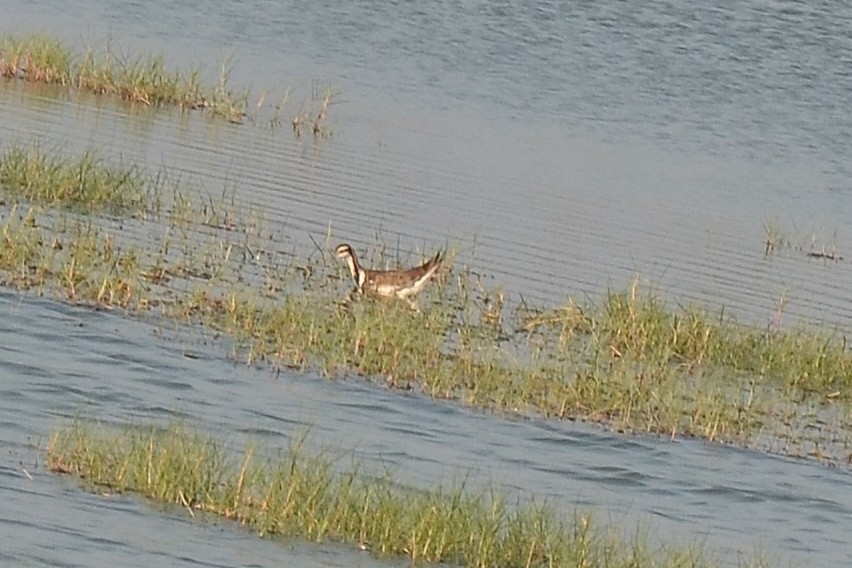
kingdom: Animalia
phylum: Chordata
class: Aves
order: Charadriiformes
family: Jacanidae
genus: Hydrophasianus
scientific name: Hydrophasianus chirurgus
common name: Pheasant-tailed jacana
